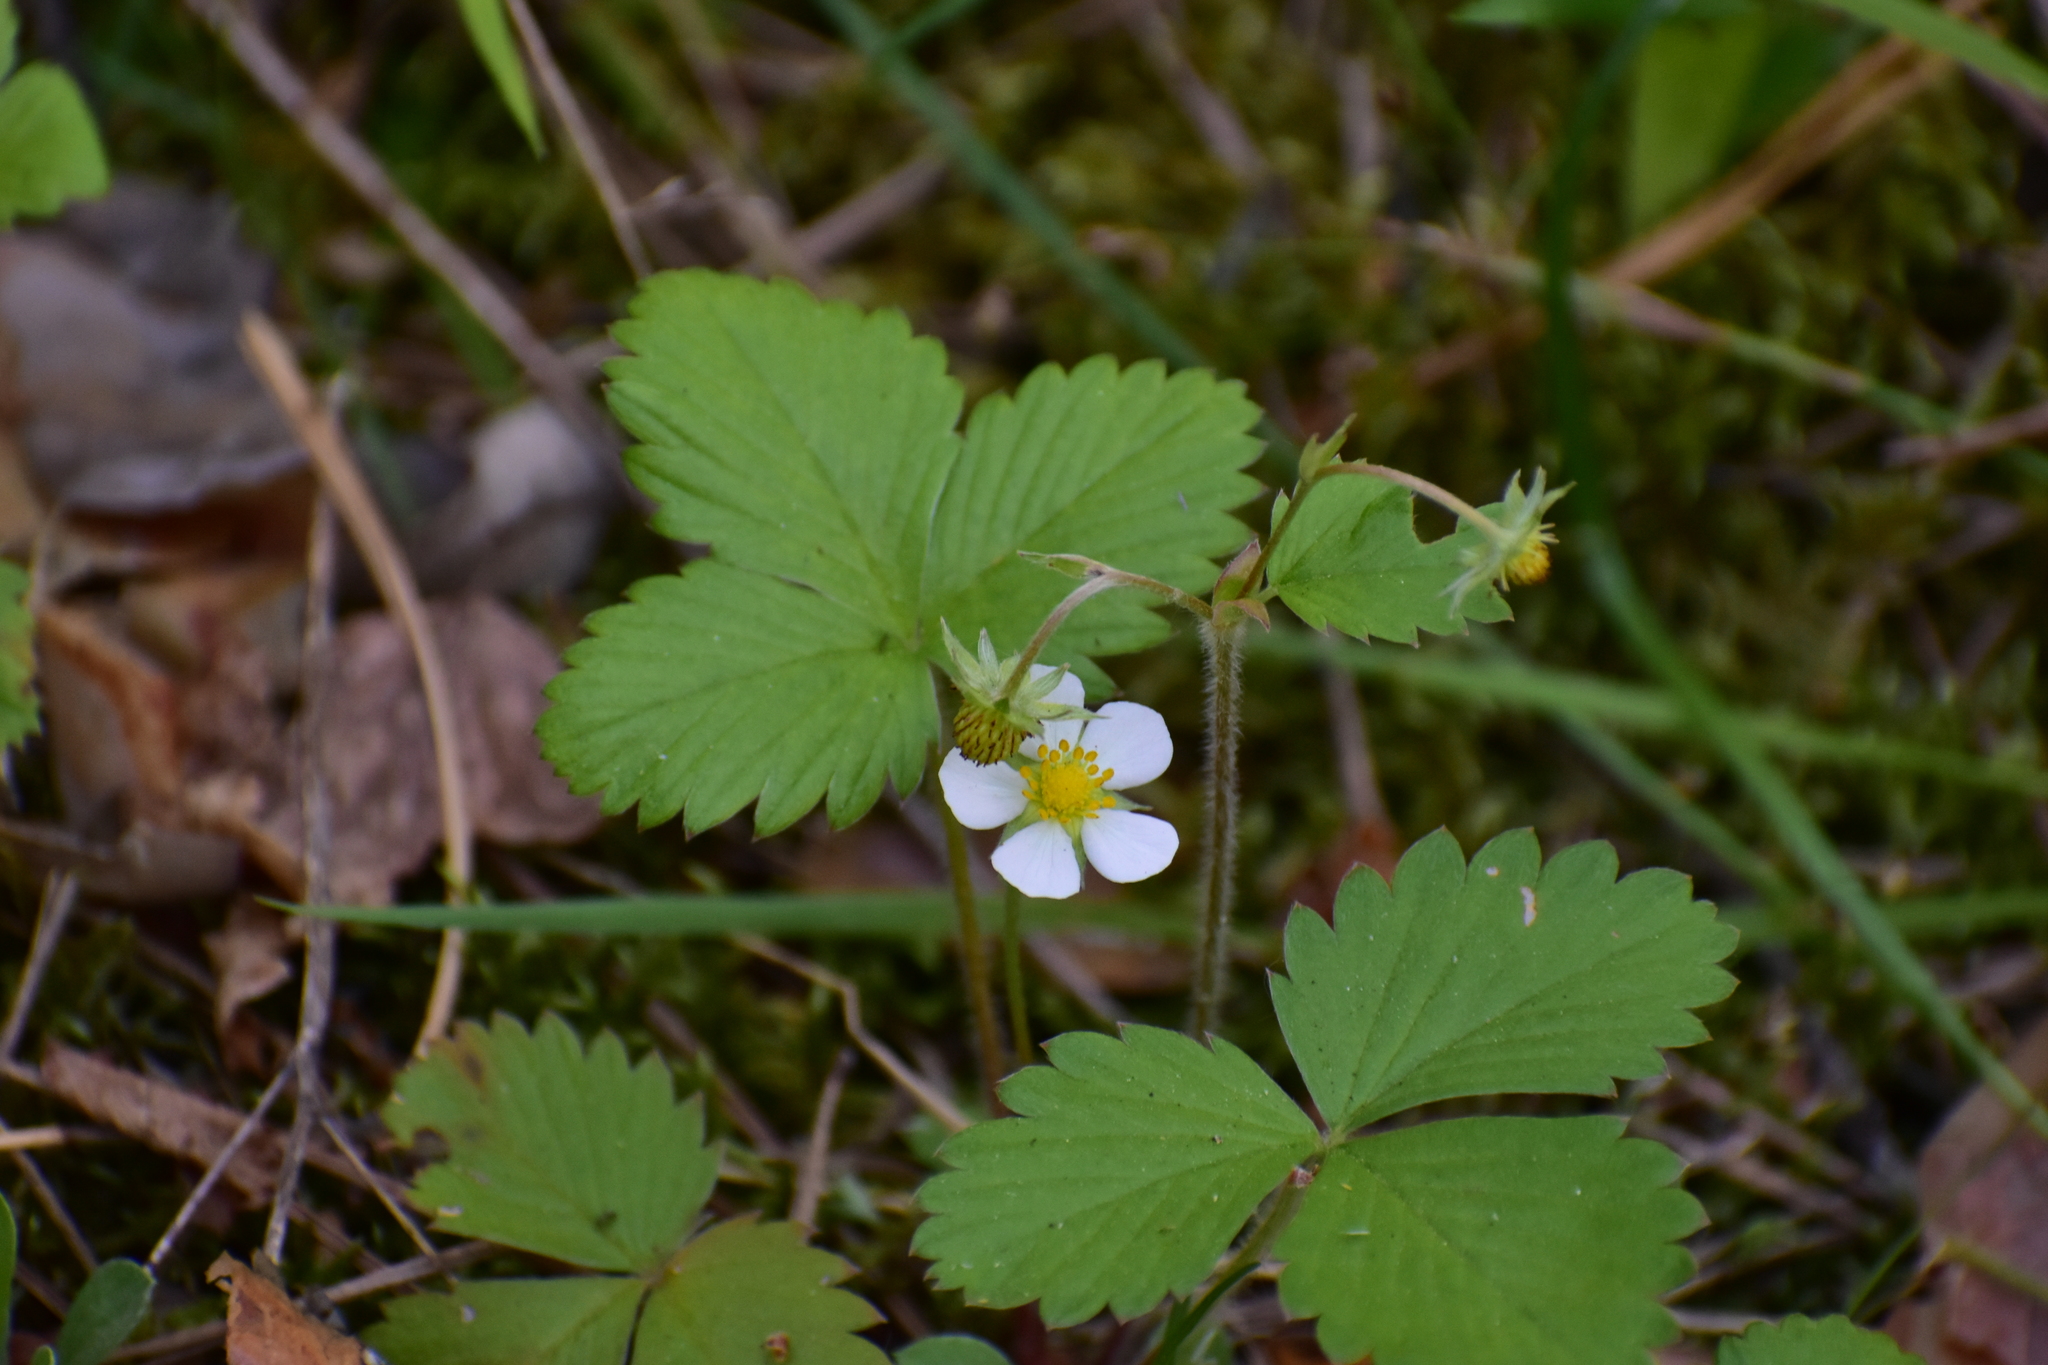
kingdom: Plantae
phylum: Tracheophyta
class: Magnoliopsida
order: Rosales
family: Rosaceae
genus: Fragaria
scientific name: Fragaria vesca
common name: Wild strawberry
